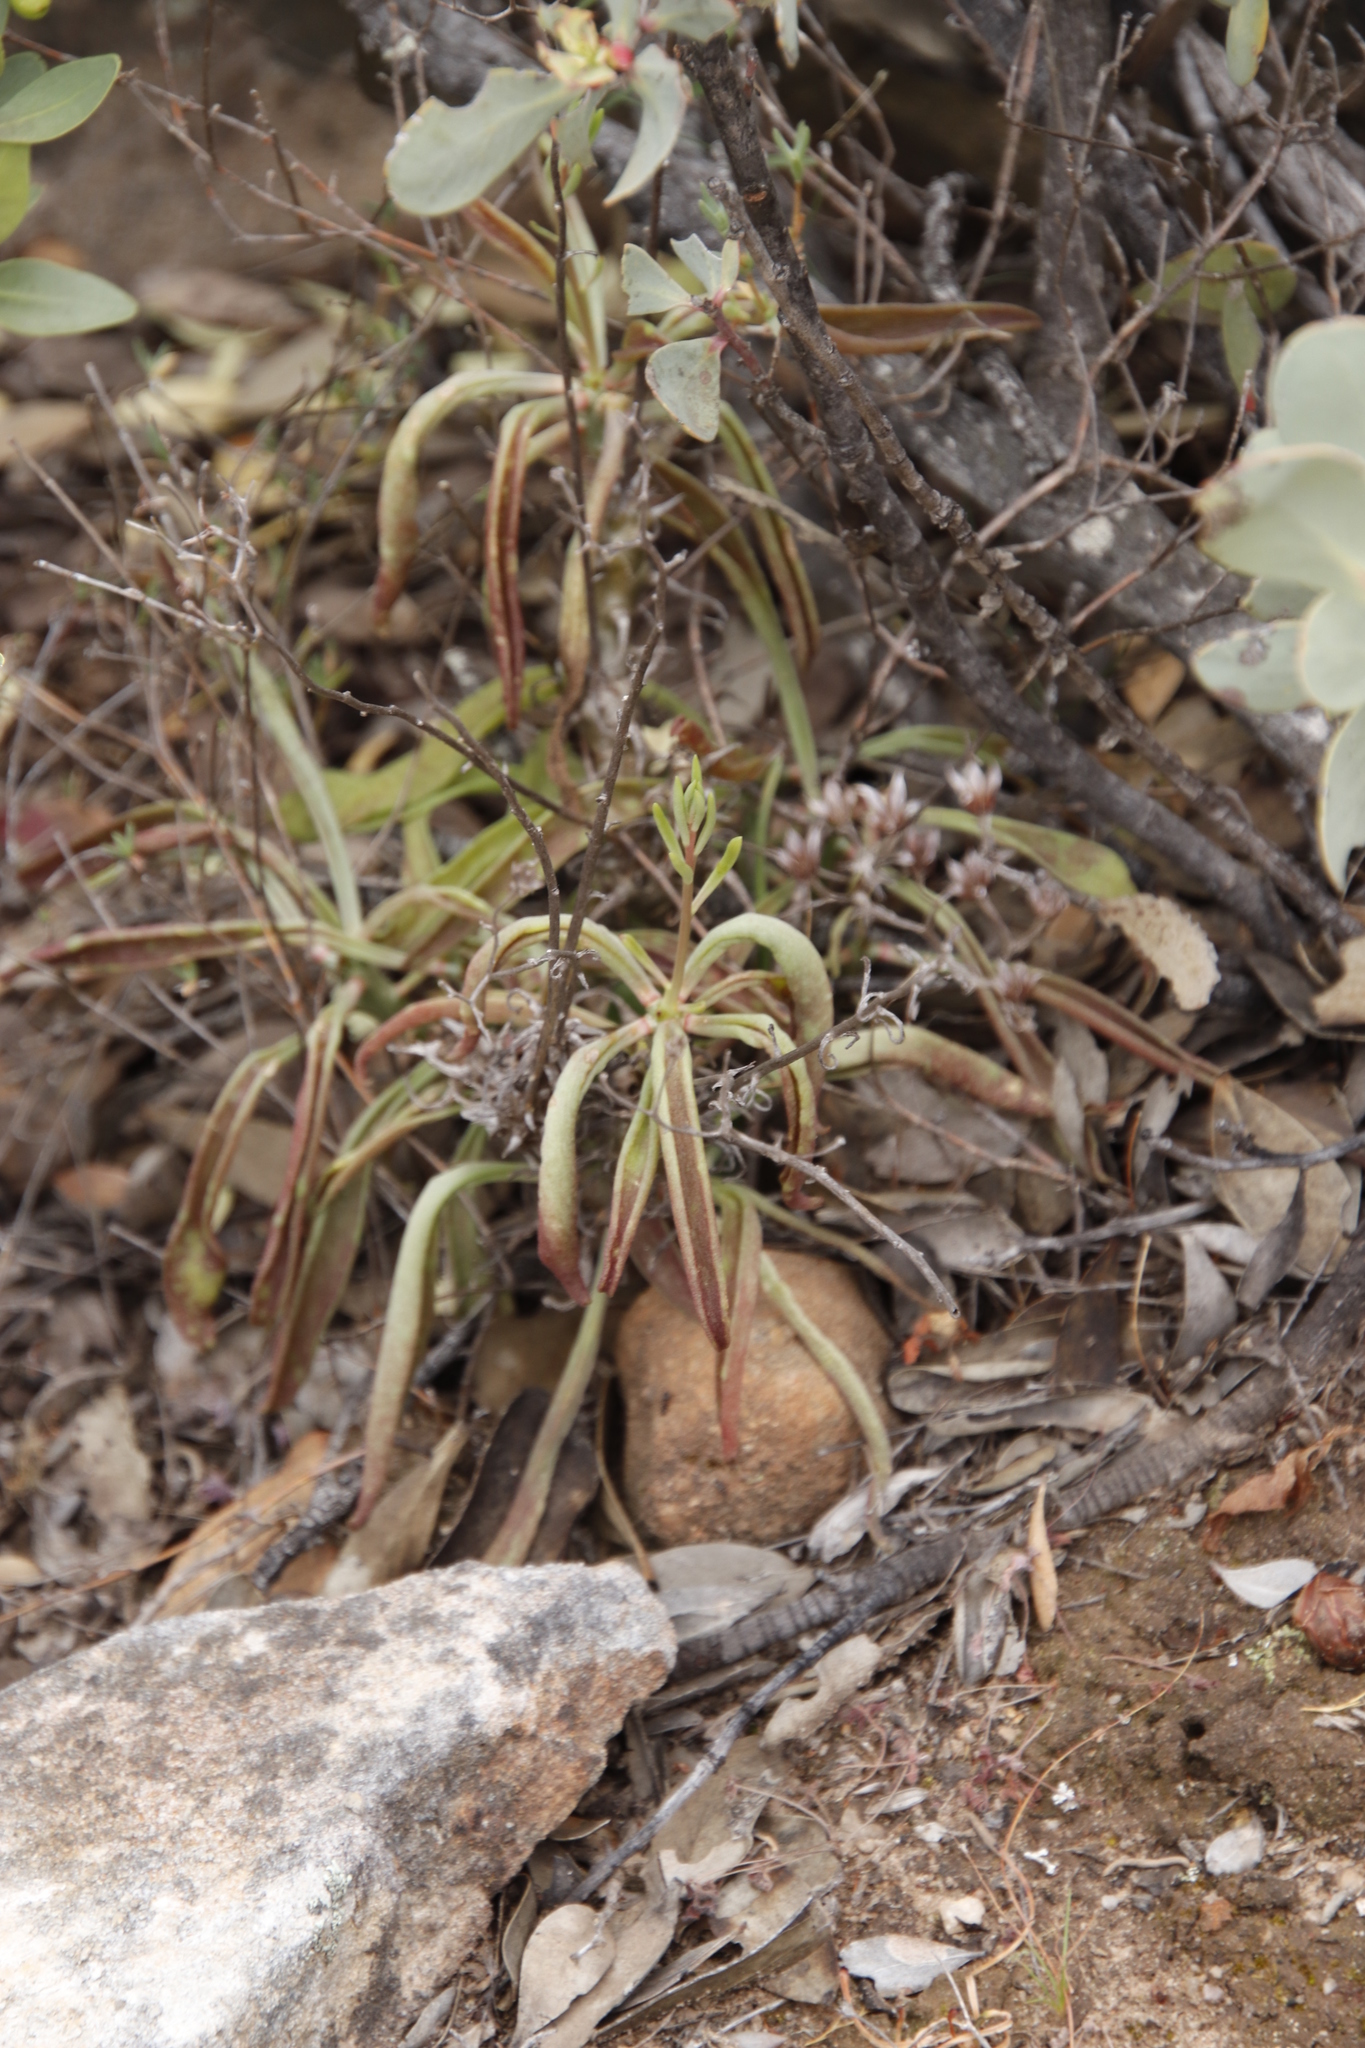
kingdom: Plantae
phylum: Tracheophyta
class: Magnoliopsida
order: Saxifragales
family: Crassulaceae
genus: Tylecodon
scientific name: Tylecodon striatus
